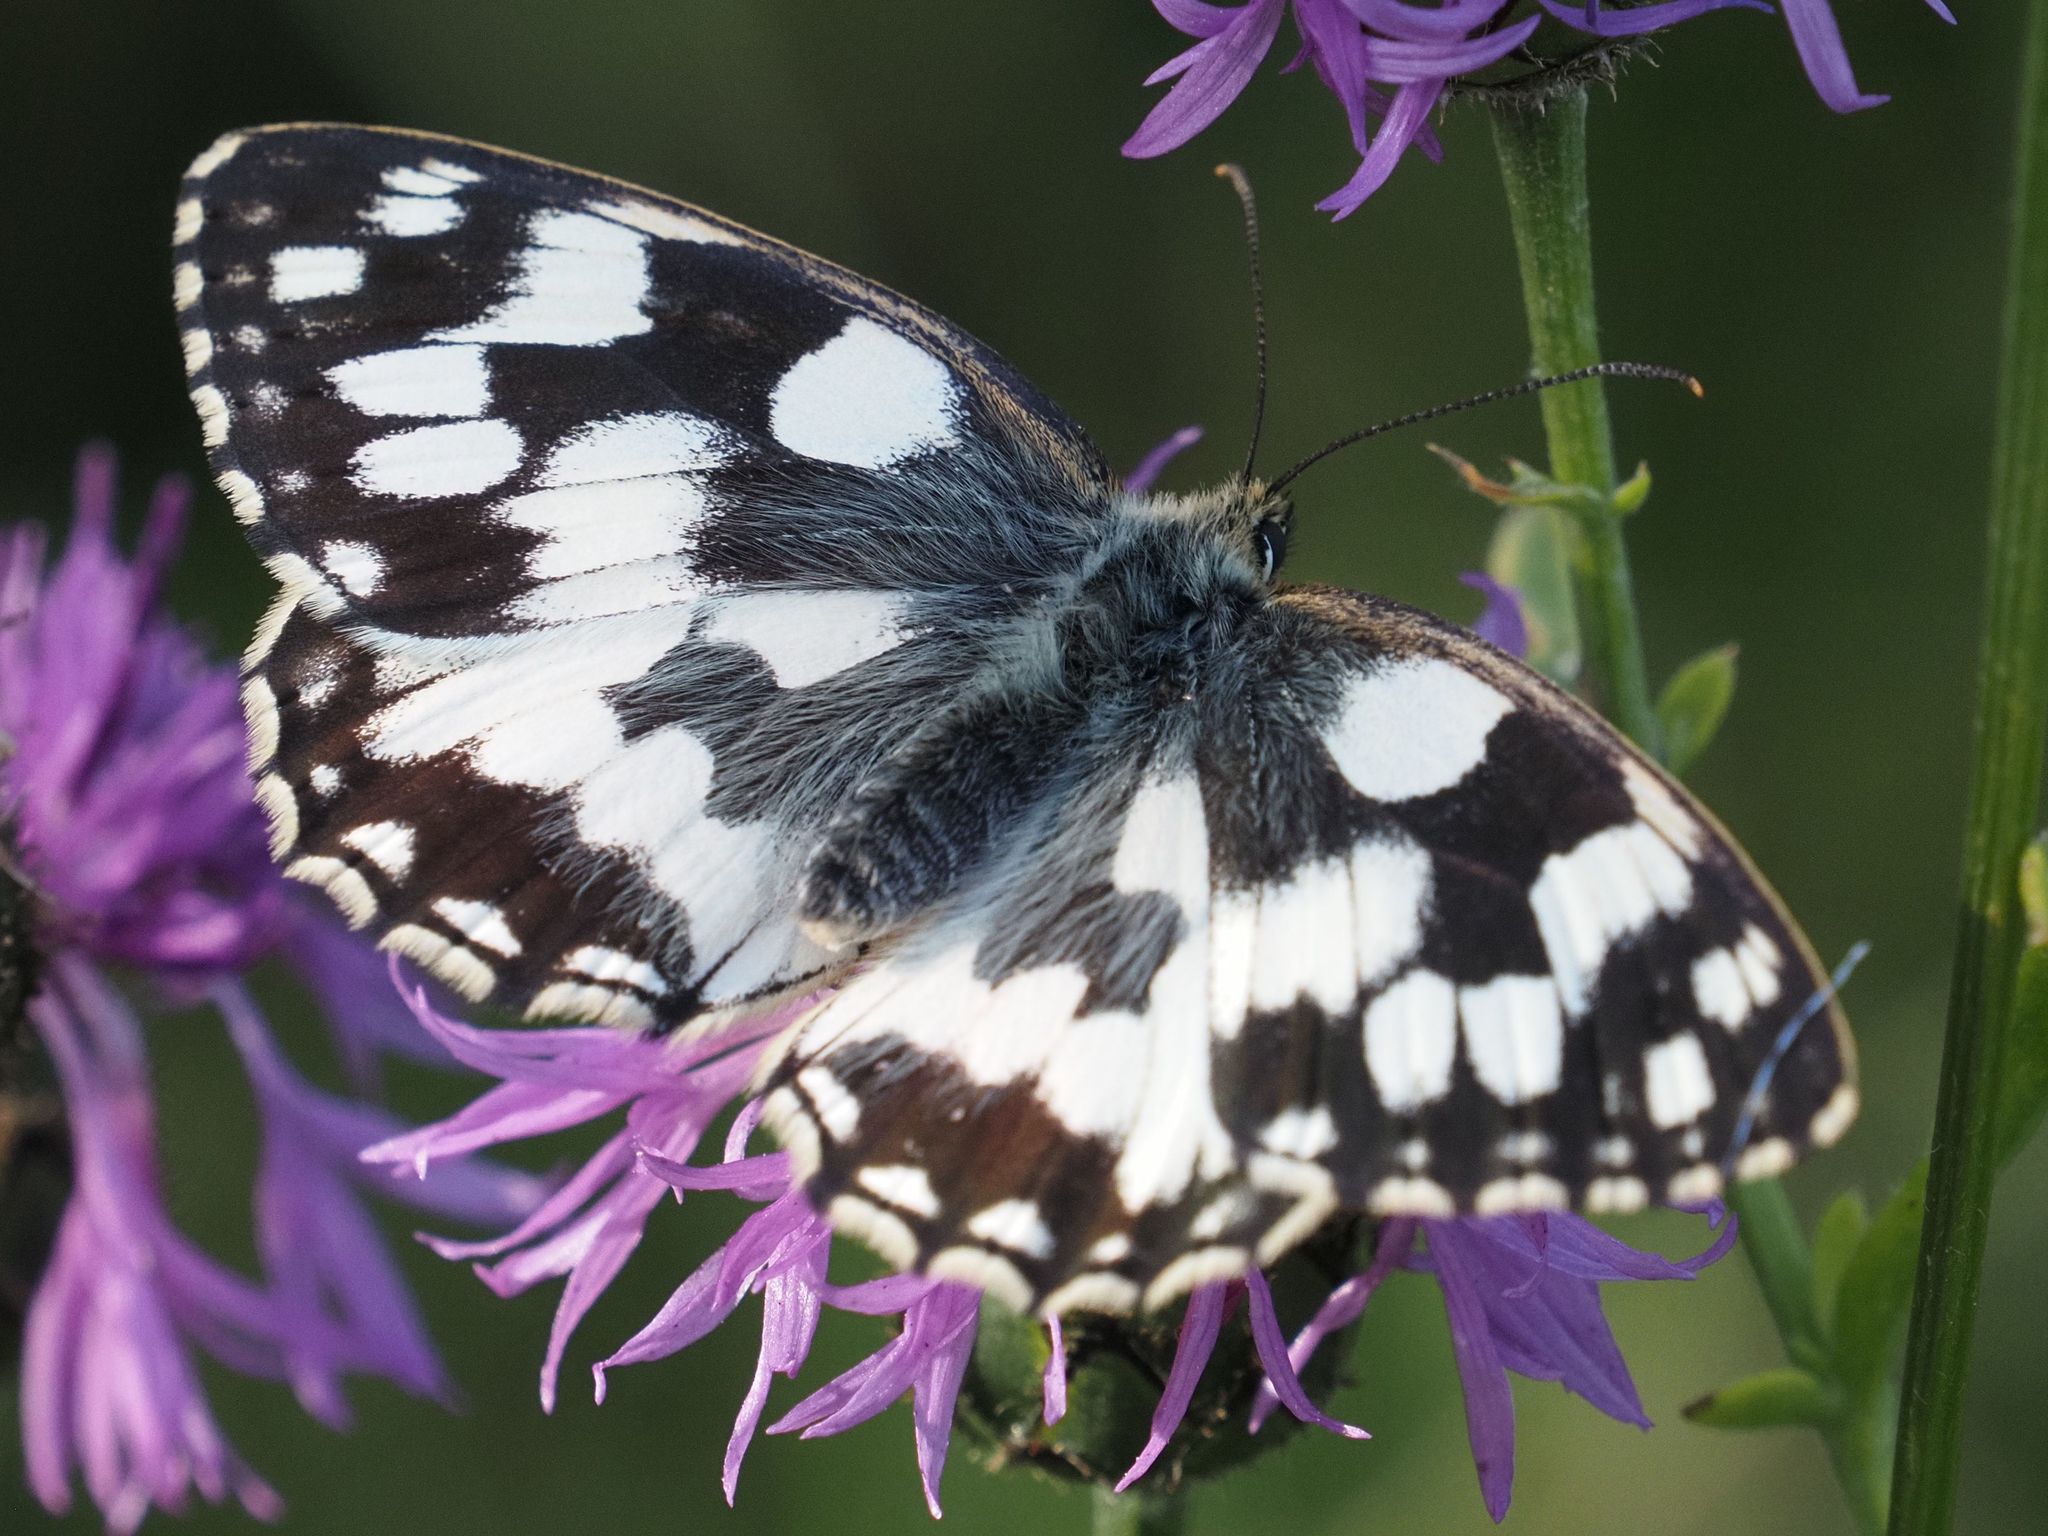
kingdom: Animalia
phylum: Arthropoda
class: Insecta
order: Lepidoptera
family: Nymphalidae
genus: Melanargia
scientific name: Melanargia galathea
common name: Marbled white
